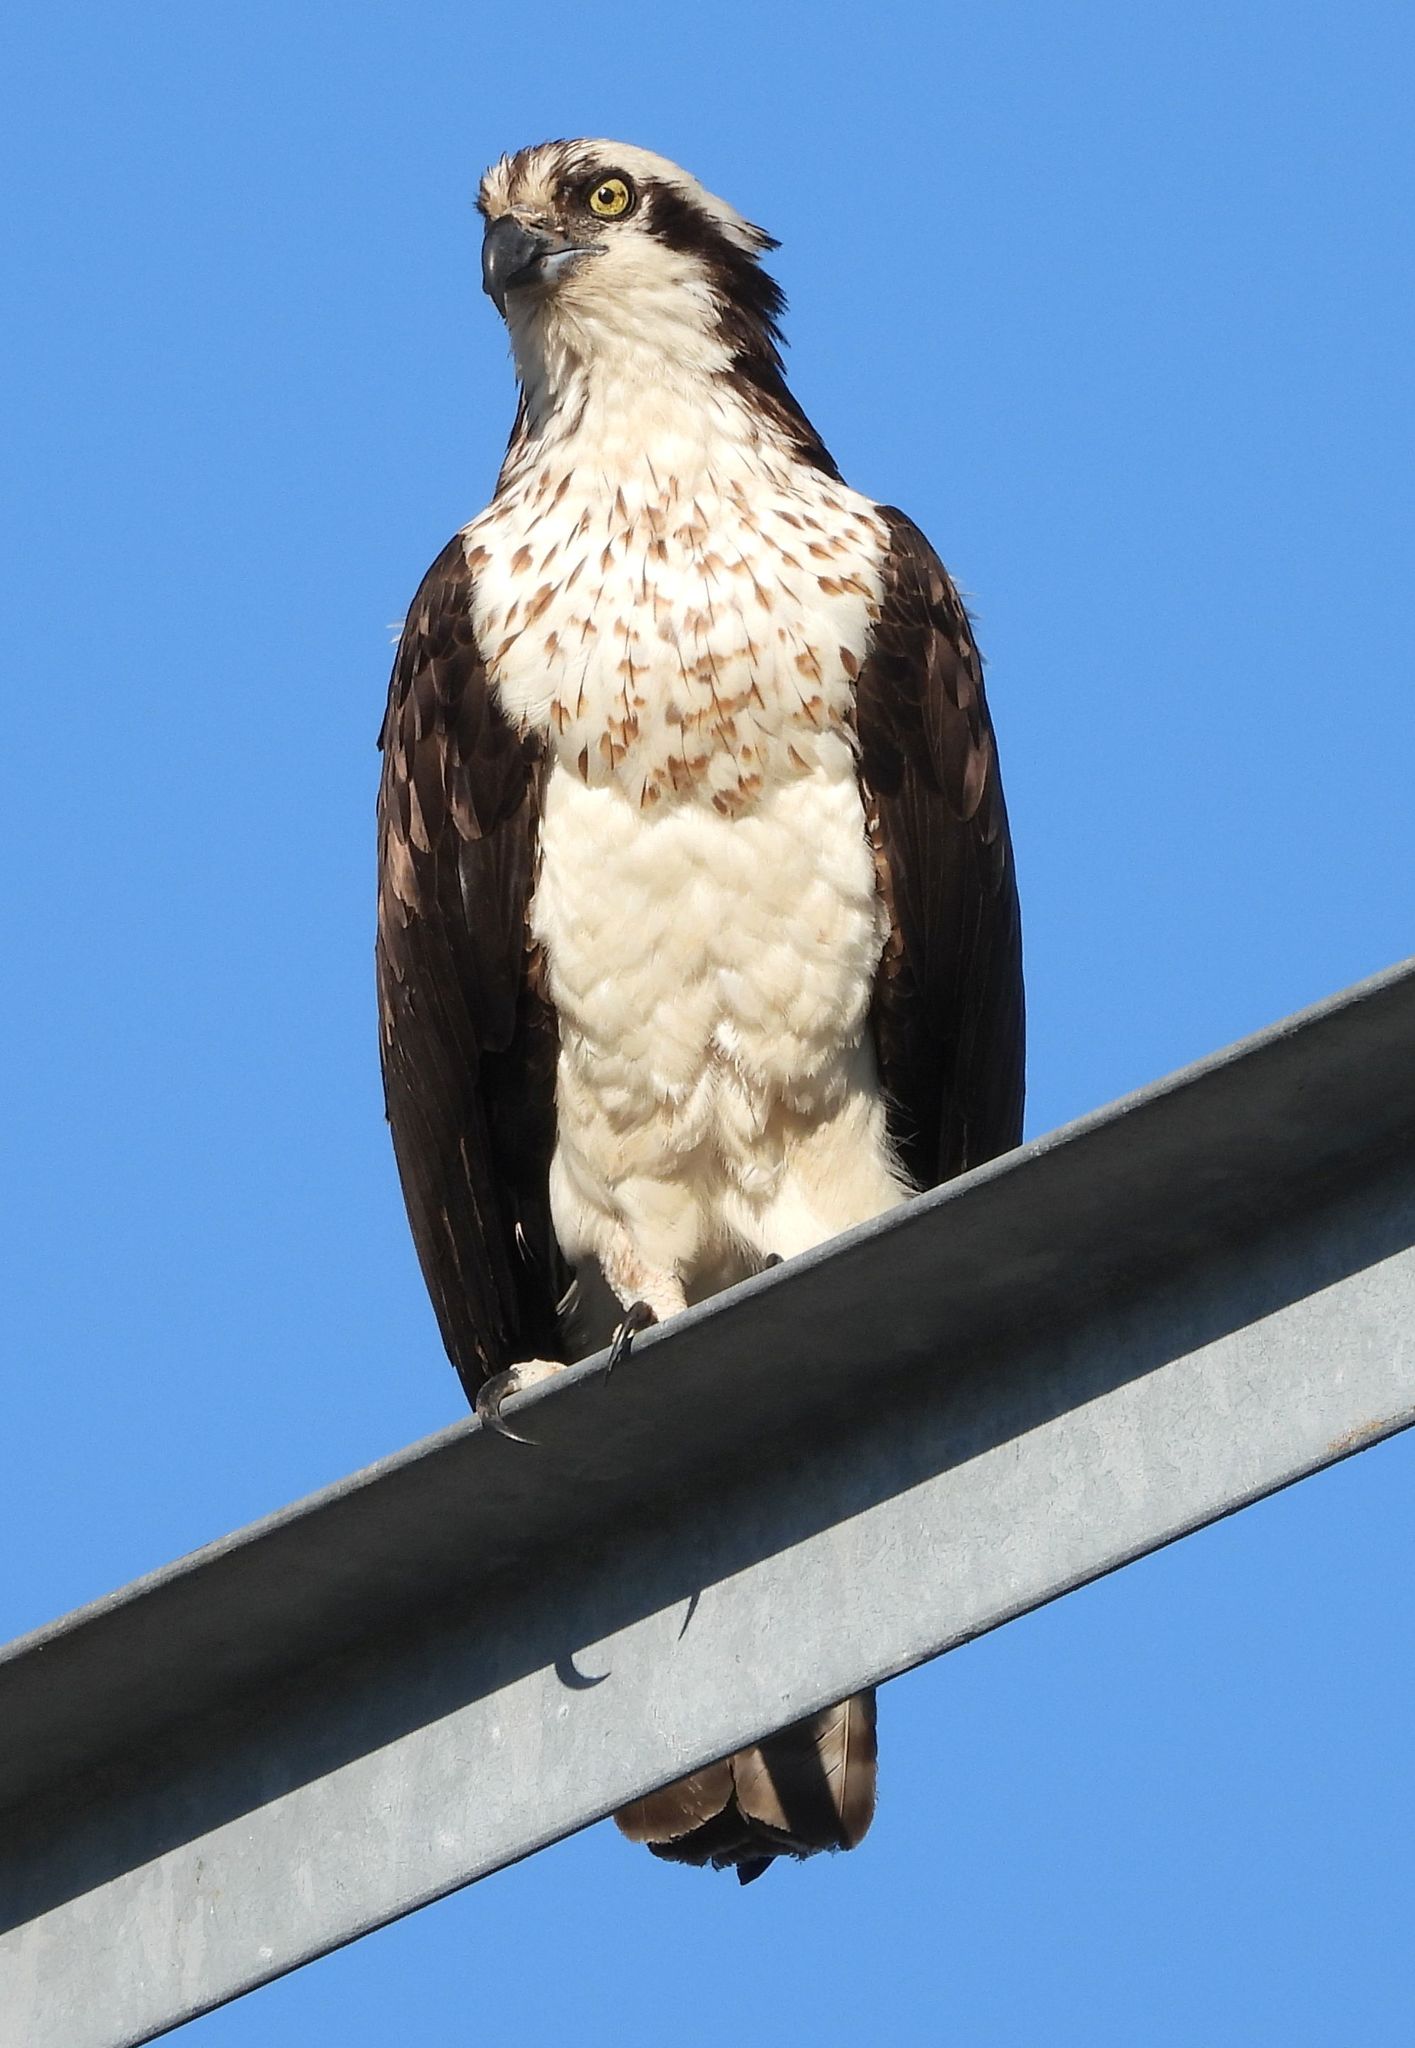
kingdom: Animalia
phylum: Chordata
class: Aves
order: Accipitriformes
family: Pandionidae
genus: Pandion
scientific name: Pandion haliaetus
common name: Osprey
